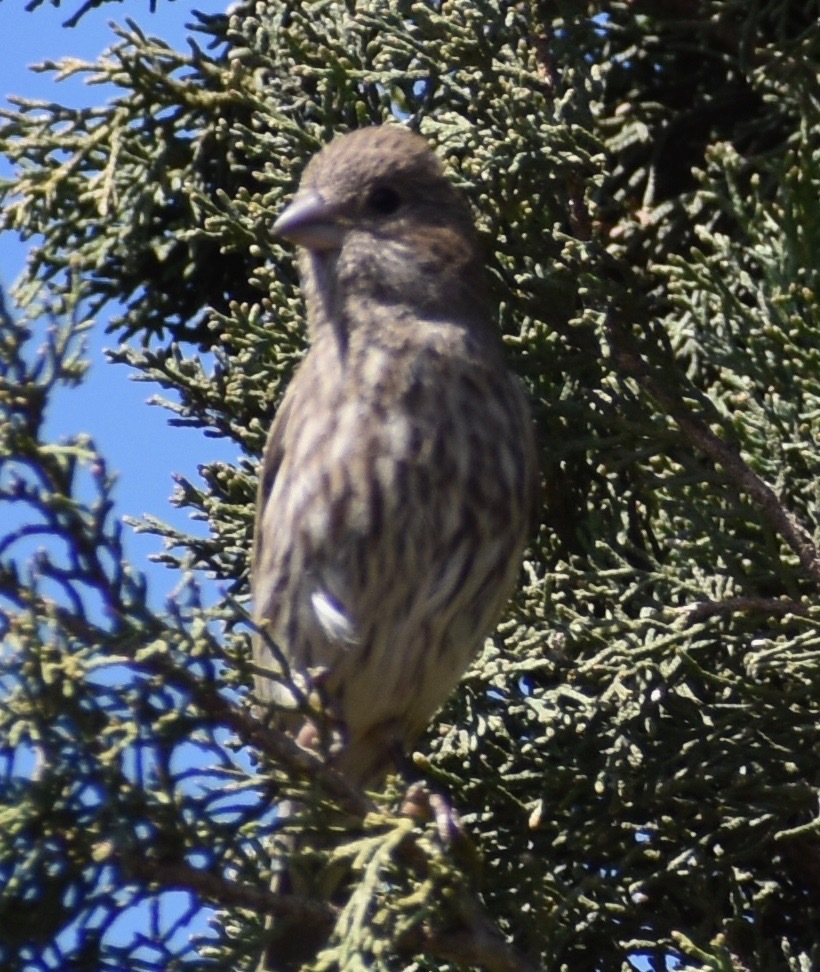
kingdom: Animalia
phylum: Chordata
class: Aves
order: Passeriformes
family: Fringillidae
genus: Haemorhous
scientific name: Haemorhous mexicanus
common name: House finch
